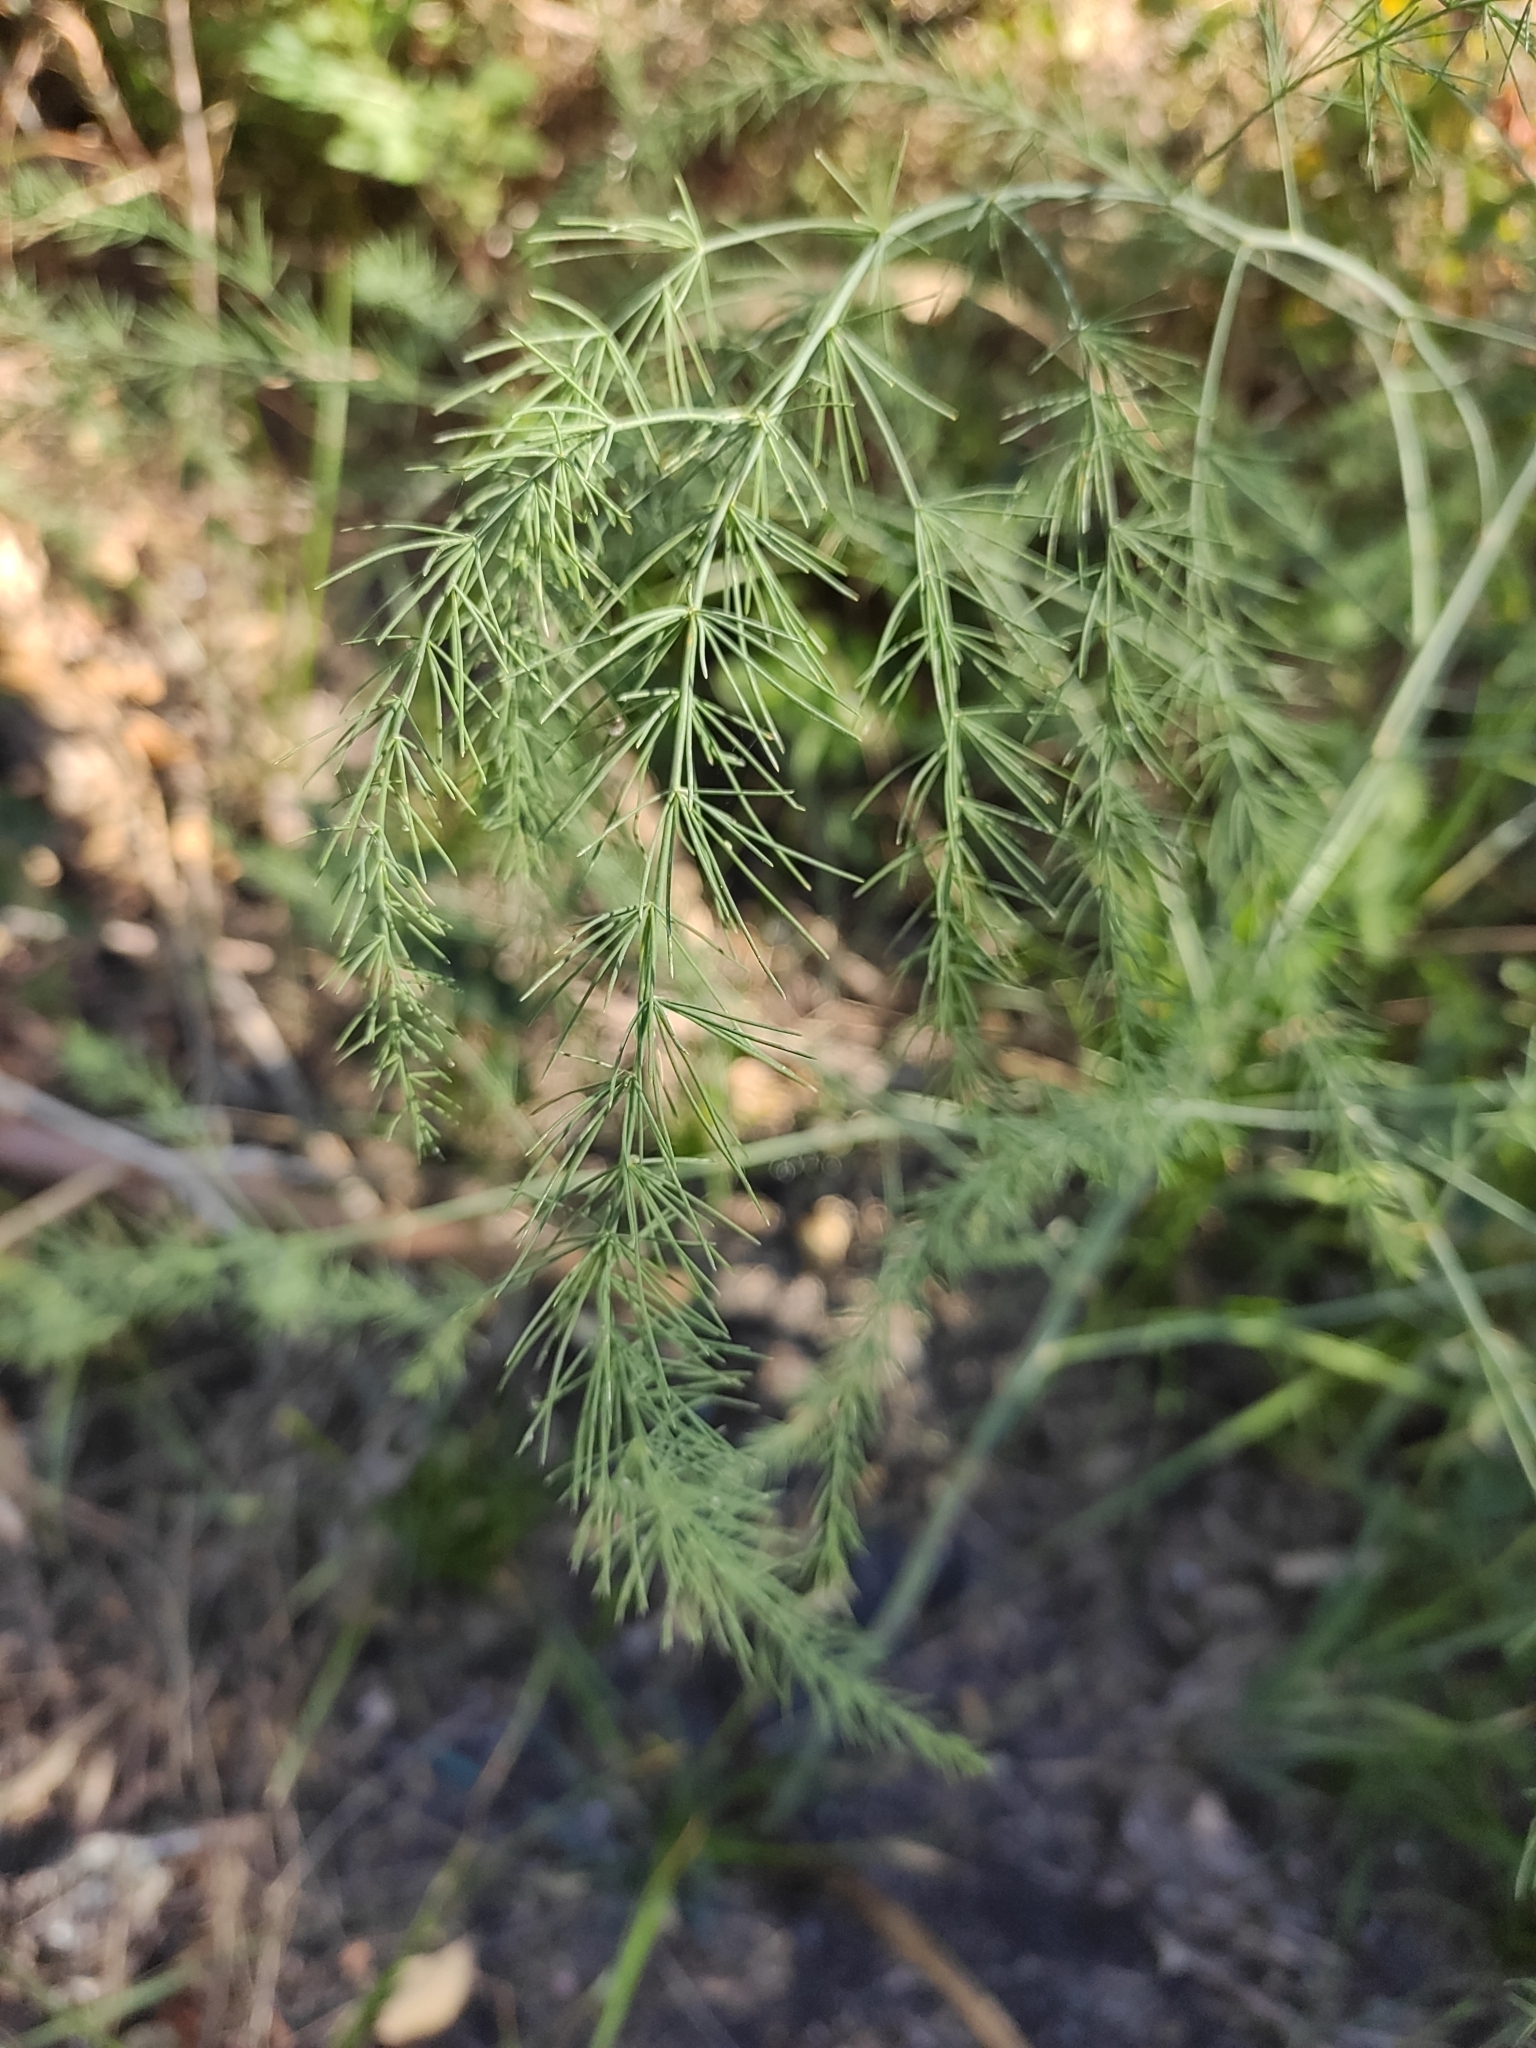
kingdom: Plantae
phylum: Tracheophyta
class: Liliopsida
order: Asparagales
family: Asparagaceae
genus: Asparagus
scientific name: Asparagus officinalis
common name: Garden asparagus
